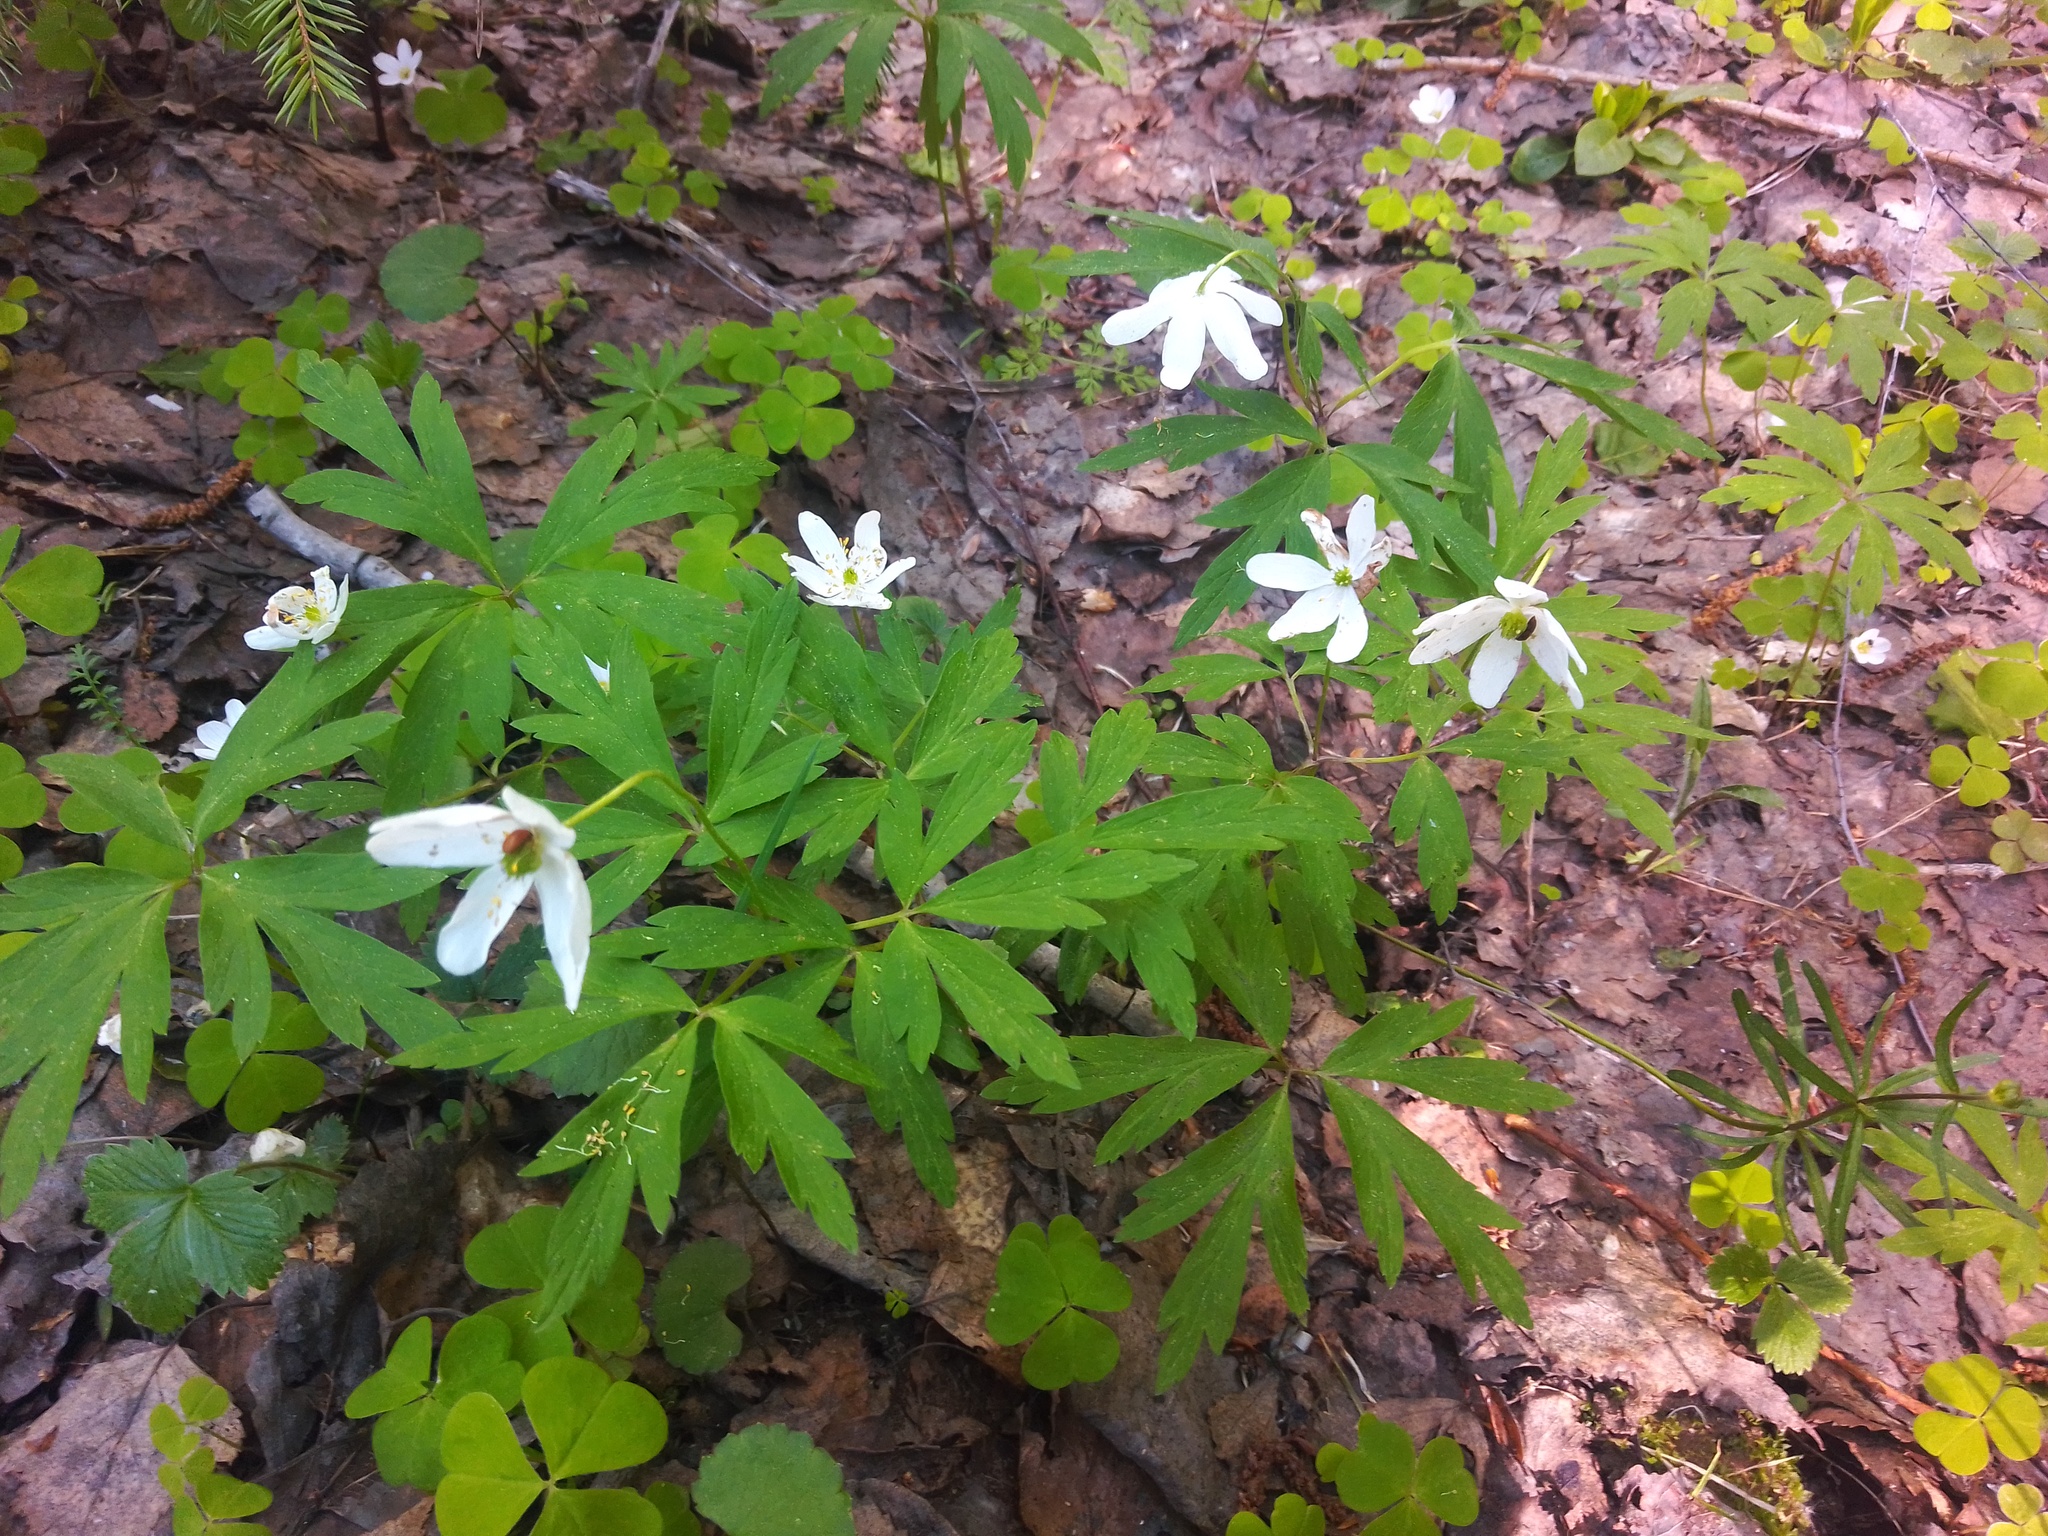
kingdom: Plantae
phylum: Tracheophyta
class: Magnoliopsida
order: Ranunculales
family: Ranunculaceae
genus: Anemone
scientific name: Anemone nemorosa
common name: Wood anemone
